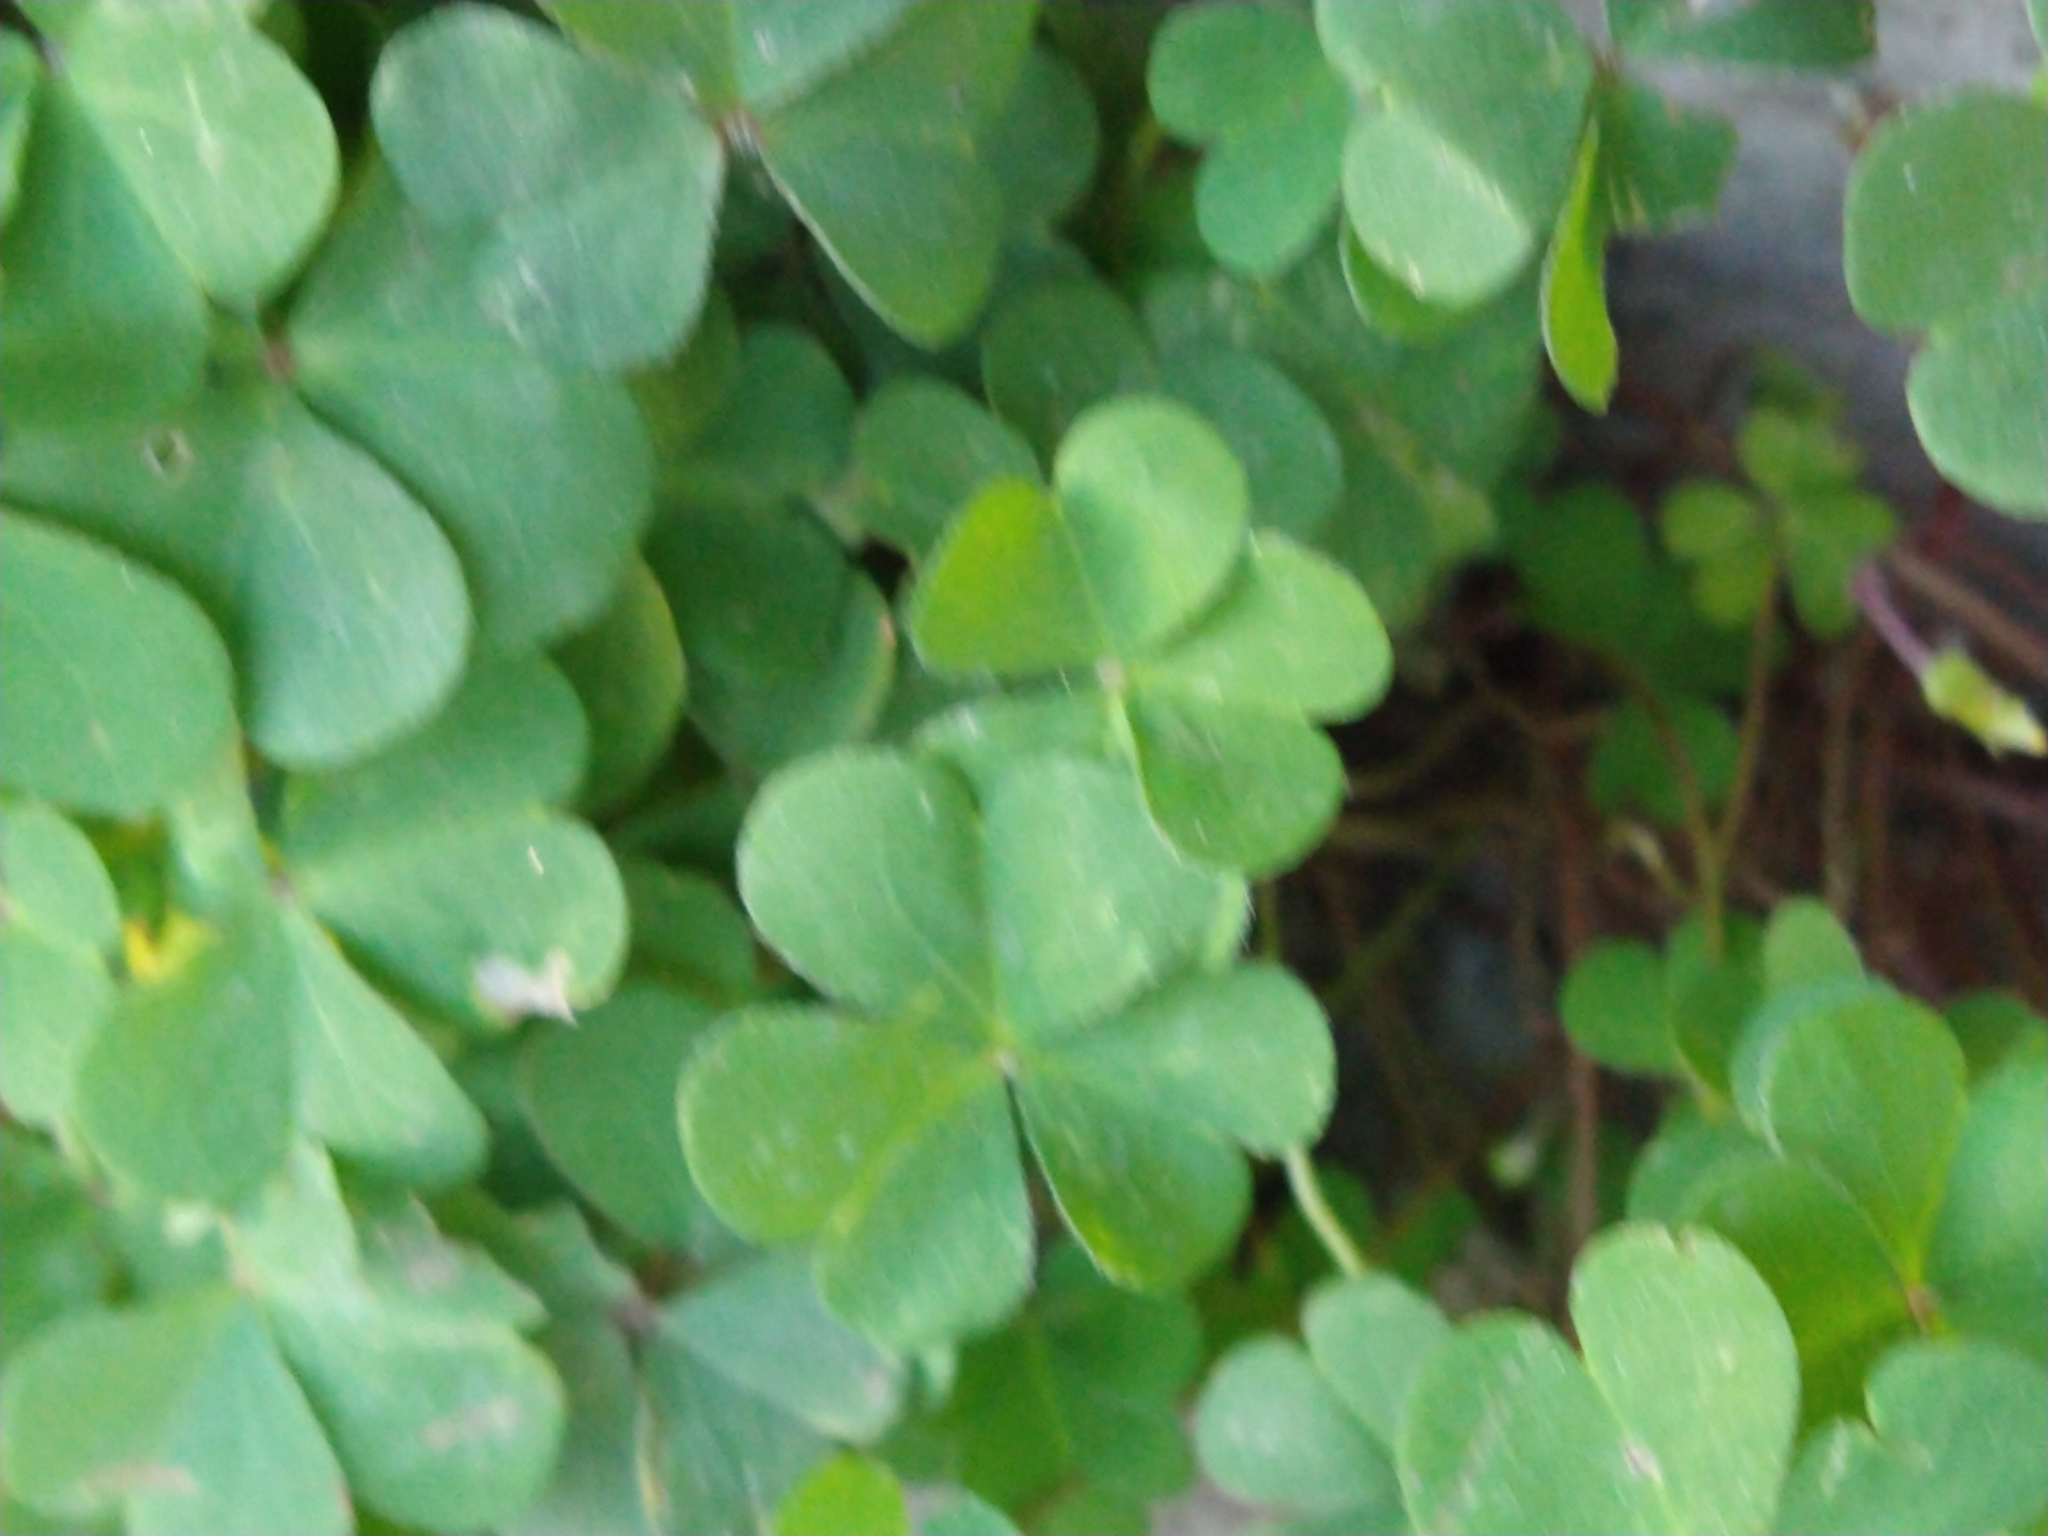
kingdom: Plantae
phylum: Tracheophyta
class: Magnoliopsida
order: Oxalidales
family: Oxalidaceae
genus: Oxalis
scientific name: Oxalis debilis
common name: Large-flowered pink-sorrel
